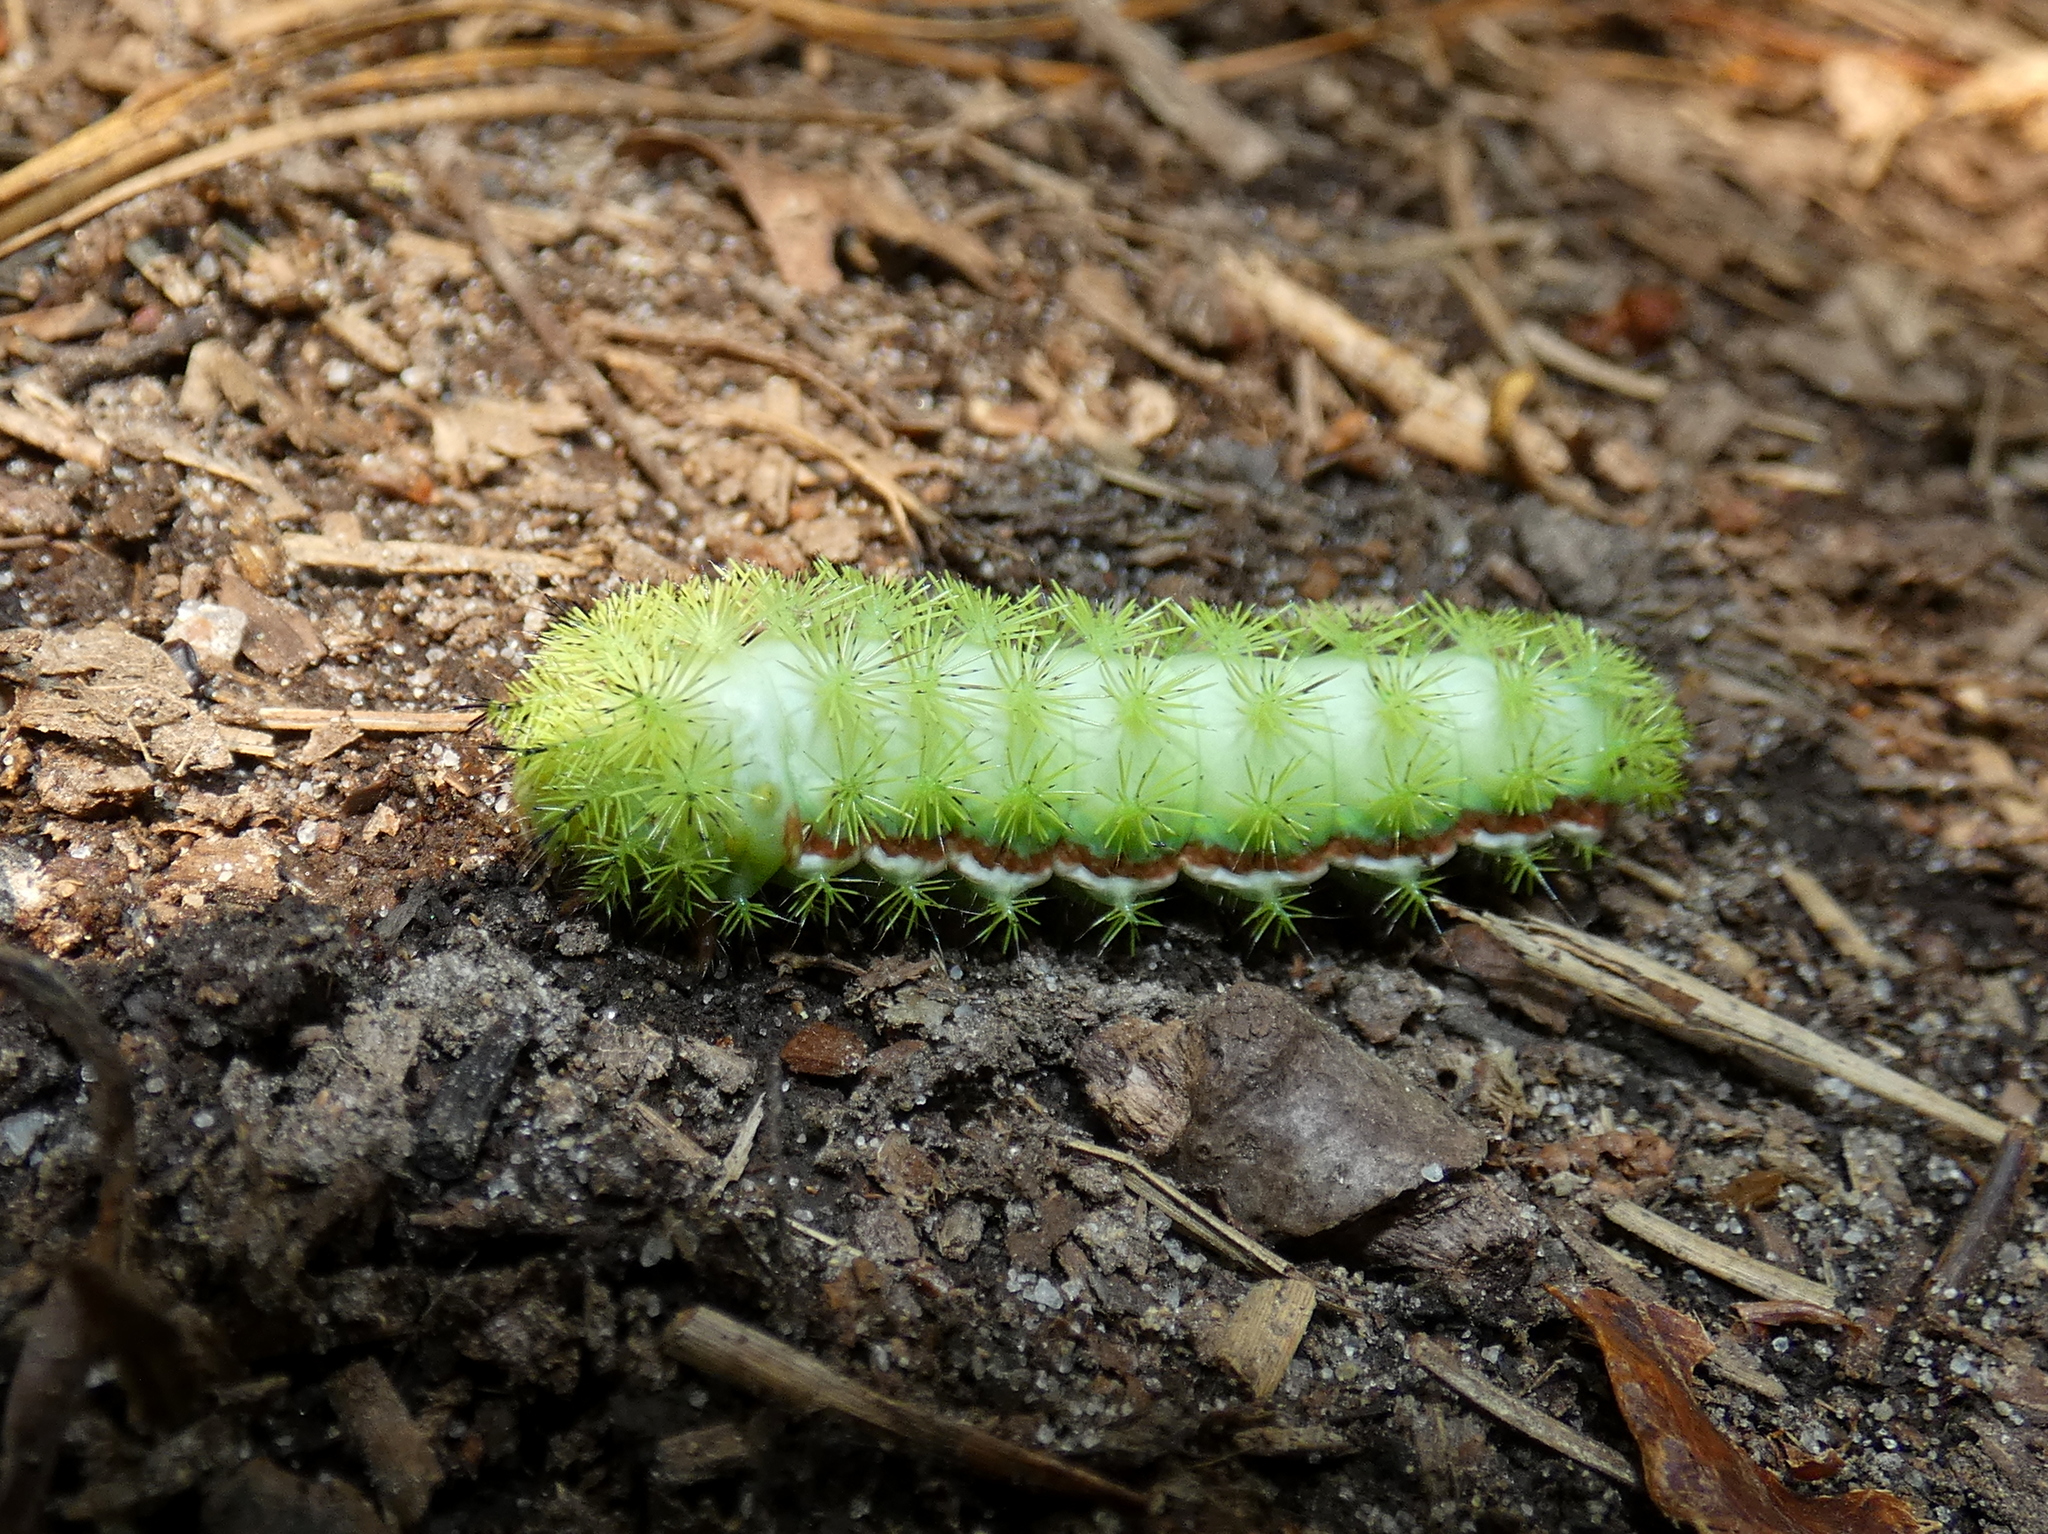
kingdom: Animalia
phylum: Arthropoda
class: Insecta
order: Lepidoptera
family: Saturniidae
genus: Automeris
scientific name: Automeris io
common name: Io moth
